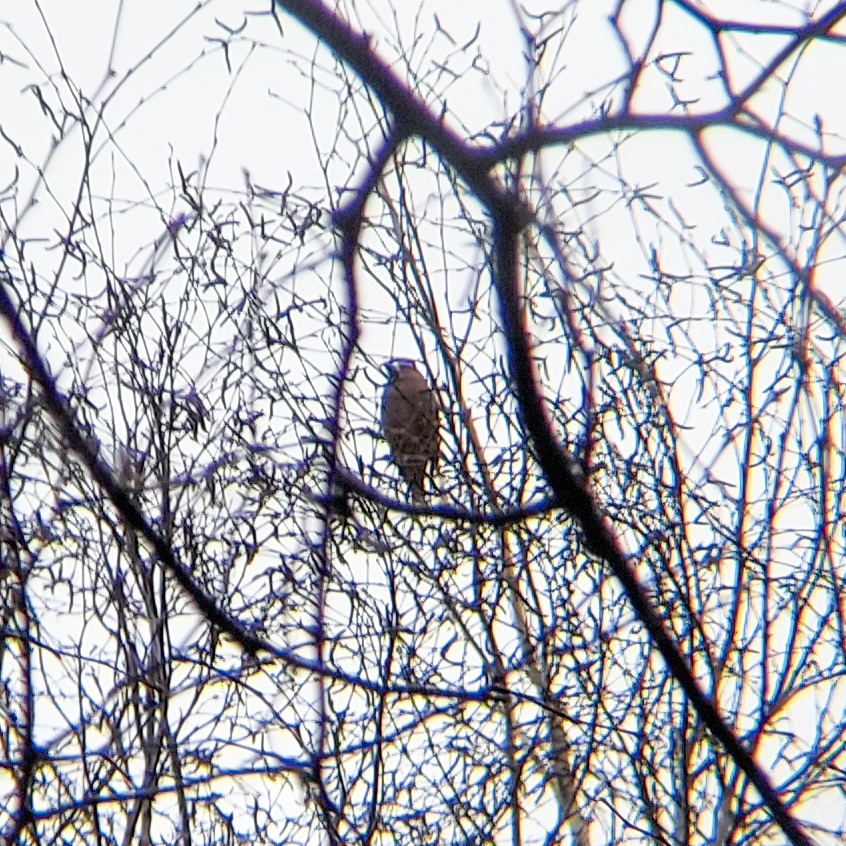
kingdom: Animalia
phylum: Chordata
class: Aves
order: Passeriformes
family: Fringillidae
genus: Coccothraustes
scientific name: Coccothraustes coccothraustes
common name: Hawfinch
